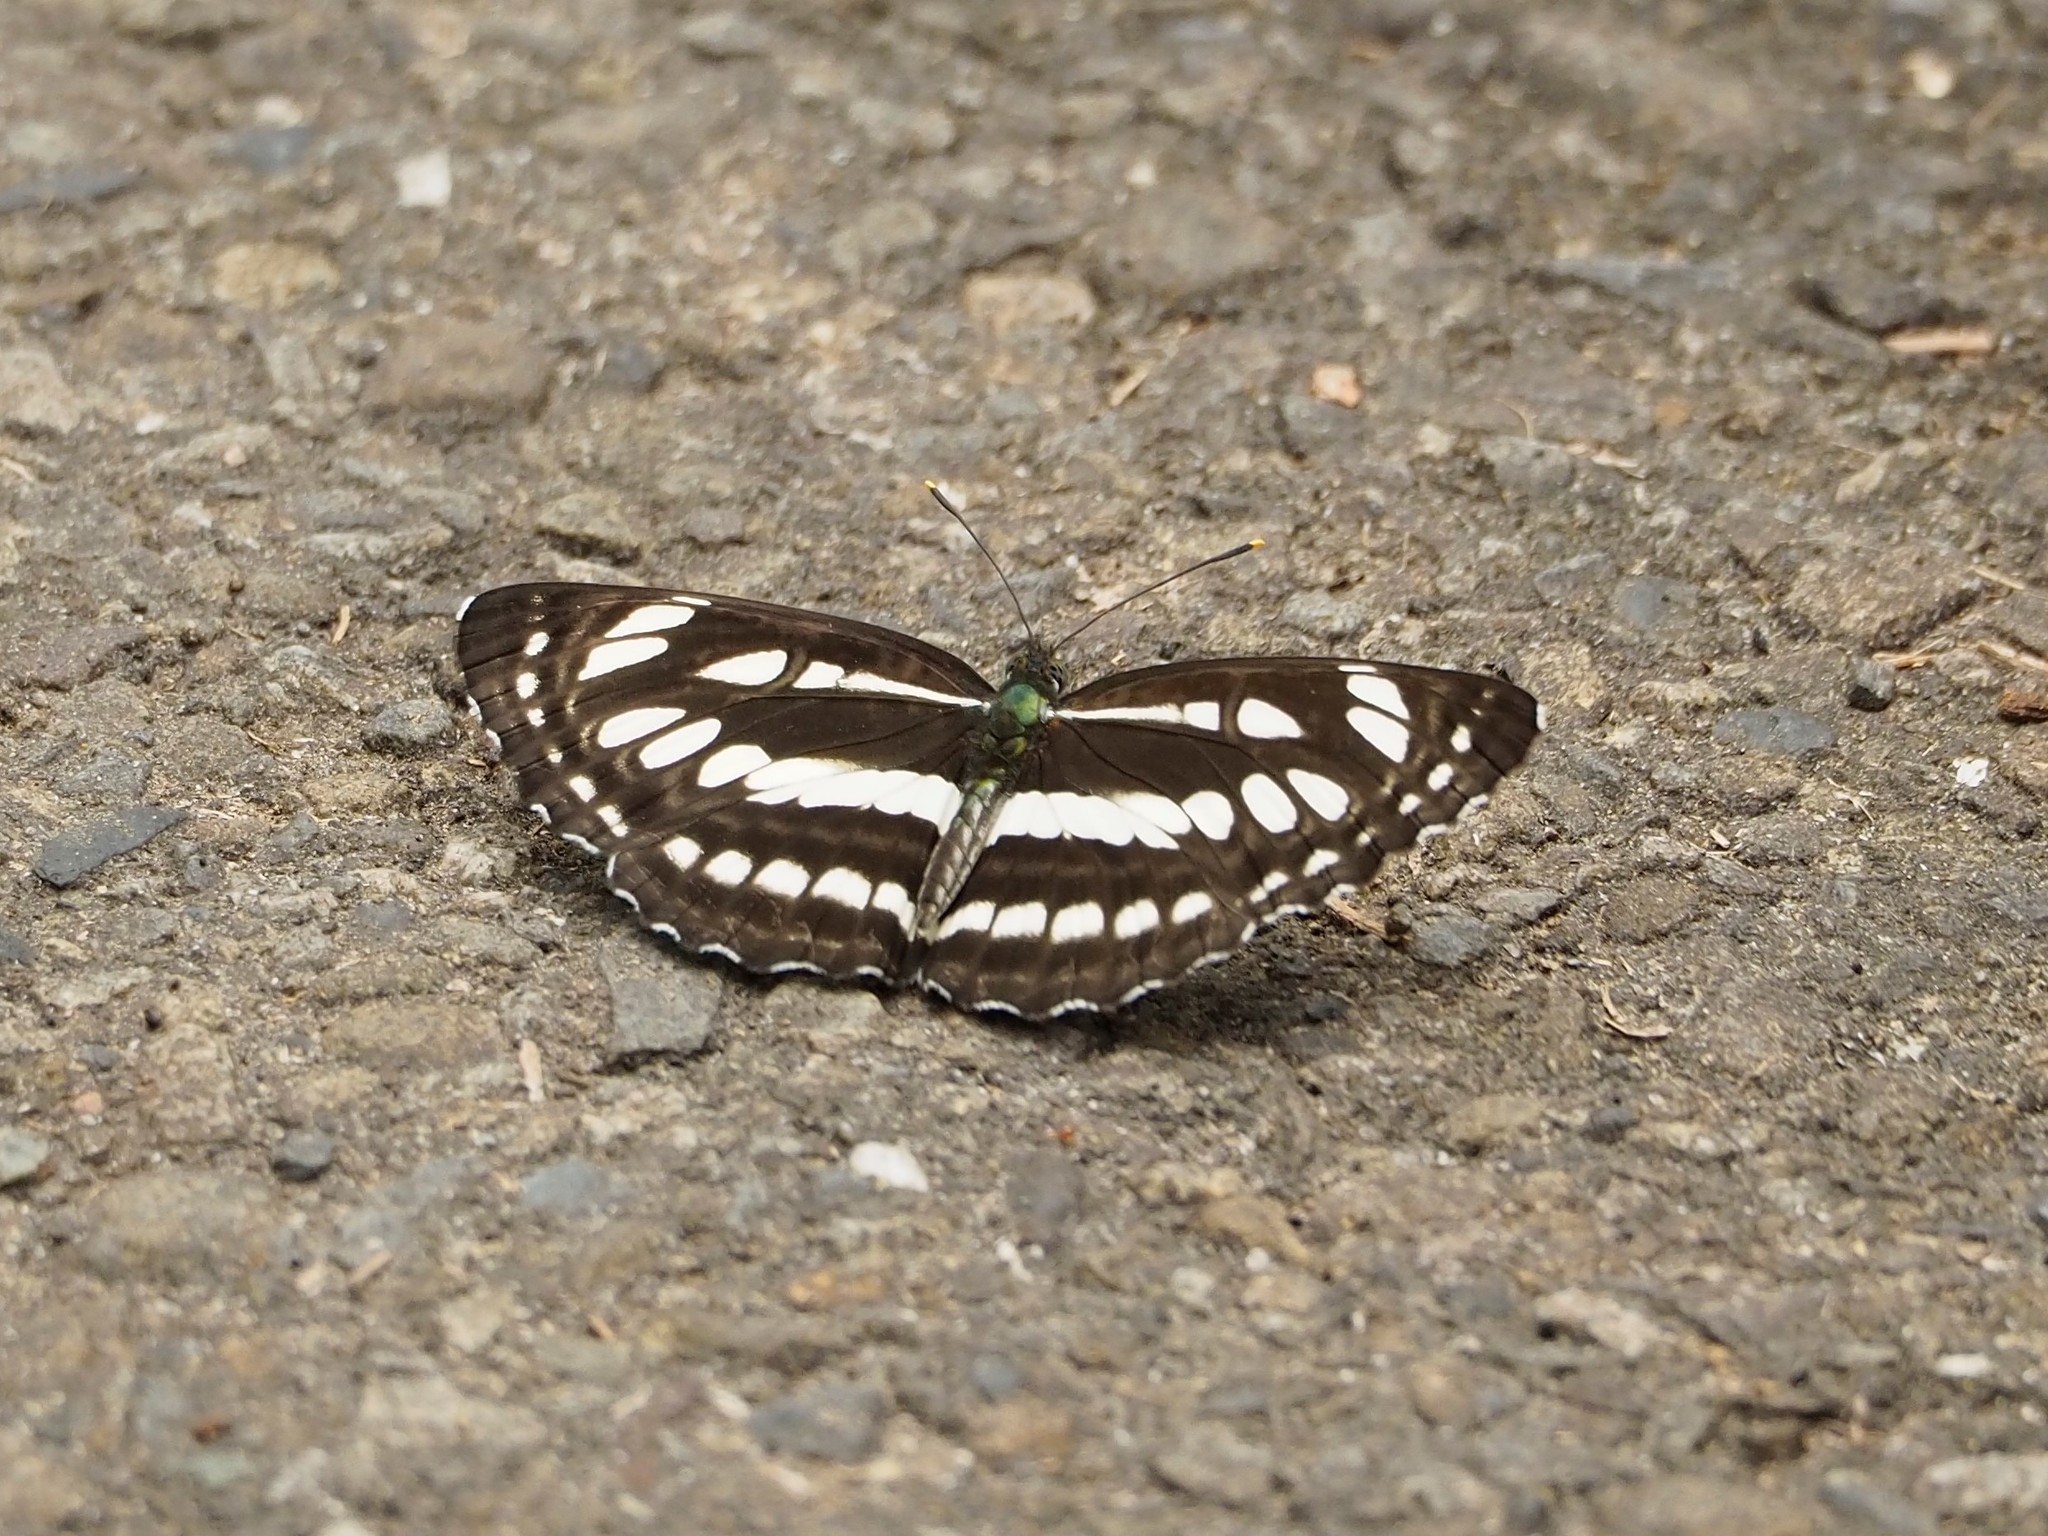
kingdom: Animalia
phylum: Arthropoda
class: Insecta
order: Lepidoptera
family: Nymphalidae
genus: Neptis
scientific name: Neptis hylas
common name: Common sailer
